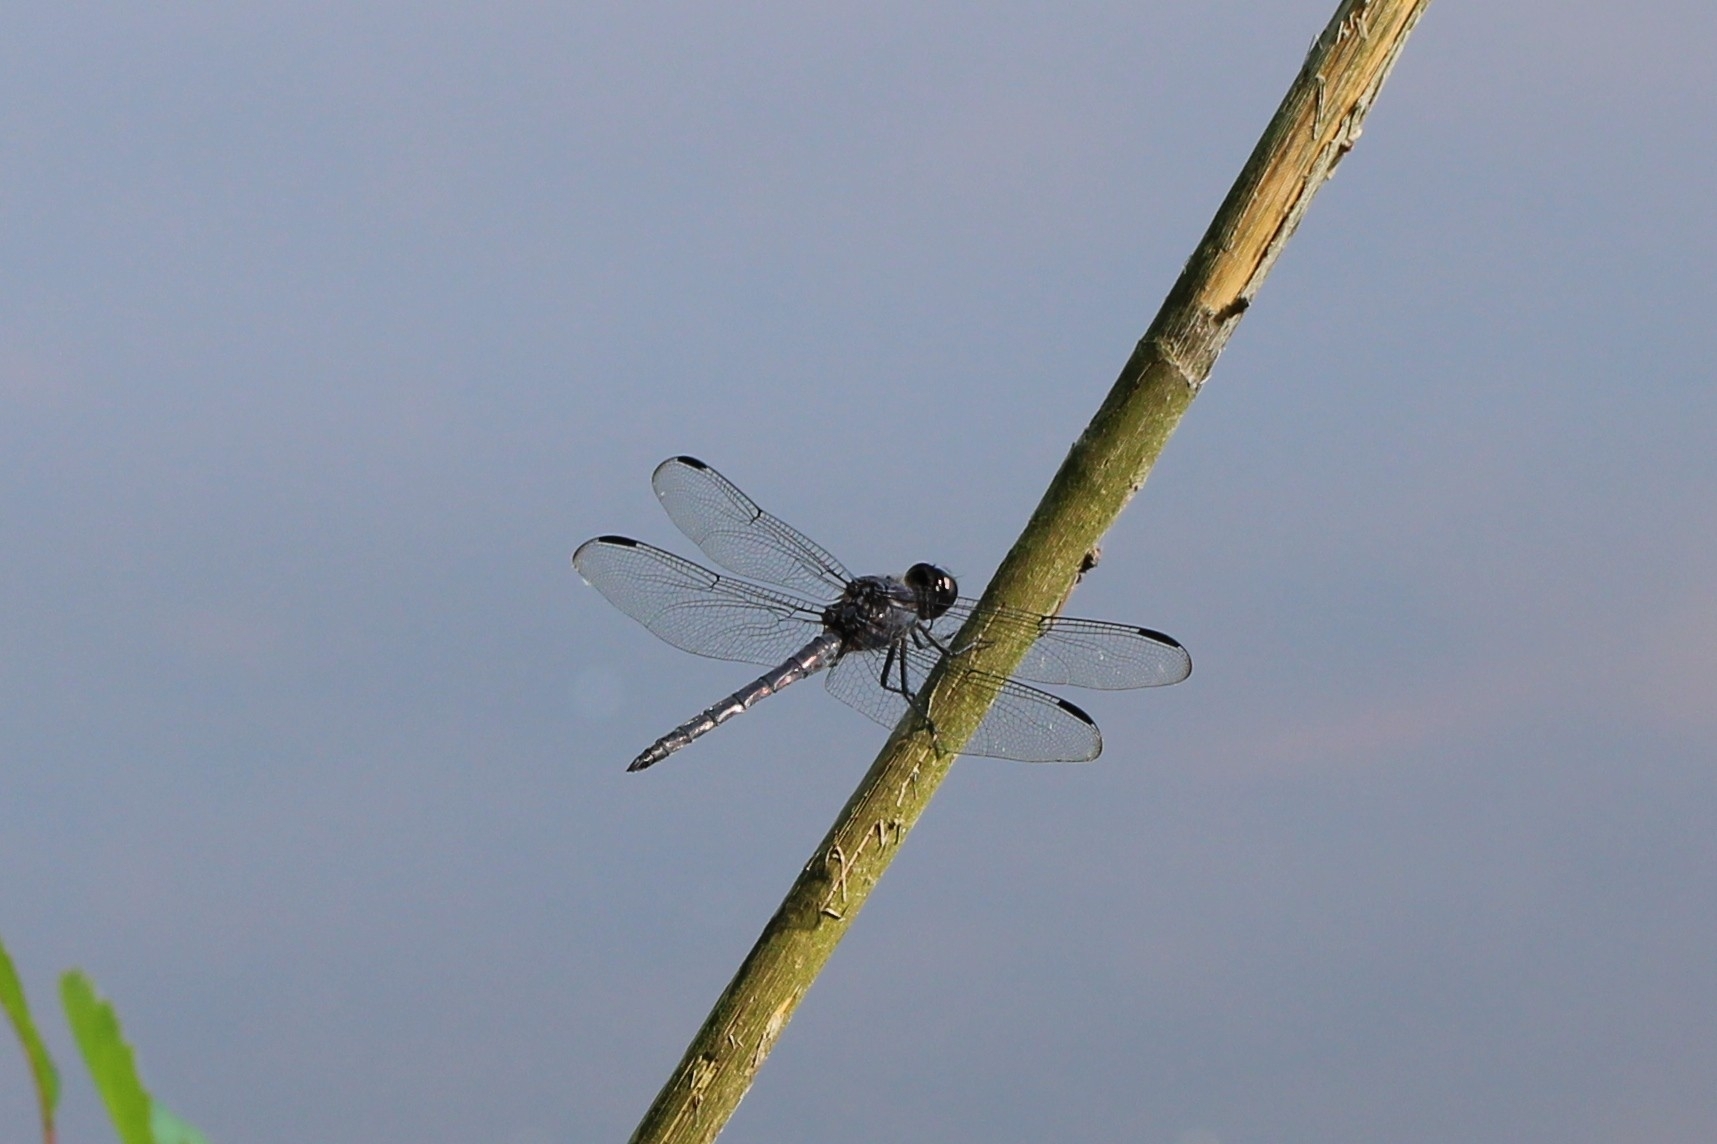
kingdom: Animalia
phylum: Arthropoda
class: Insecta
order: Odonata
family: Libellulidae
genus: Libellula
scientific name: Libellula incesta
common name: Slaty skimmer
